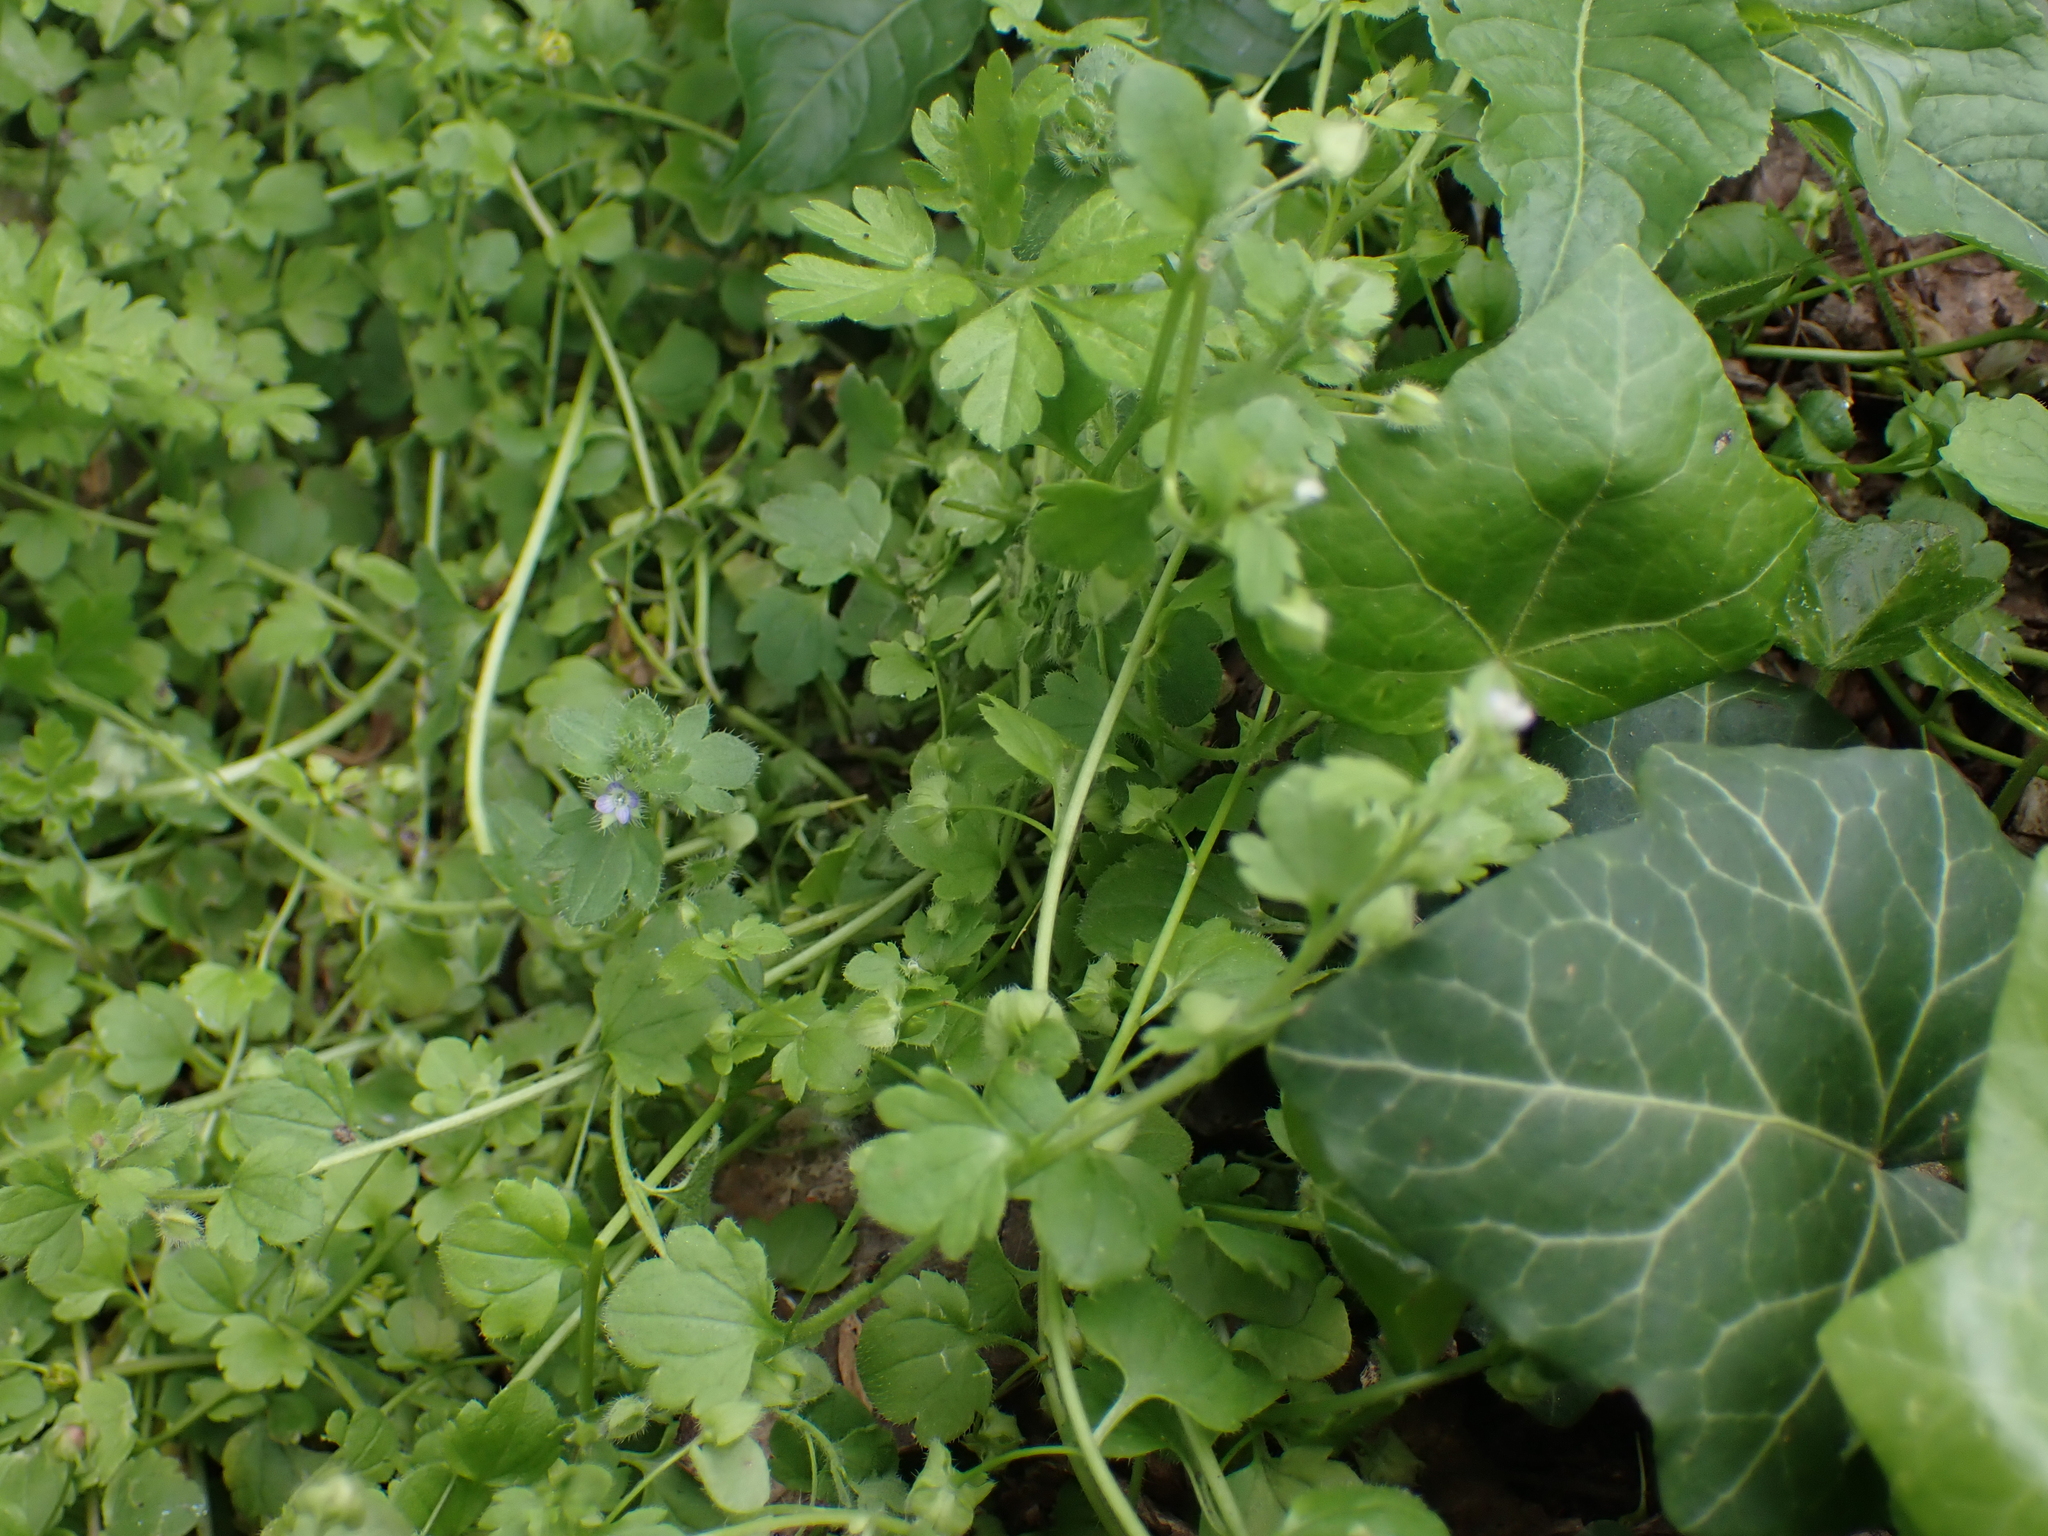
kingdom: Plantae
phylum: Tracheophyta
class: Magnoliopsida
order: Lamiales
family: Plantaginaceae
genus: Veronica
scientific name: Veronica hederifolia
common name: Ivy-leaved speedwell
